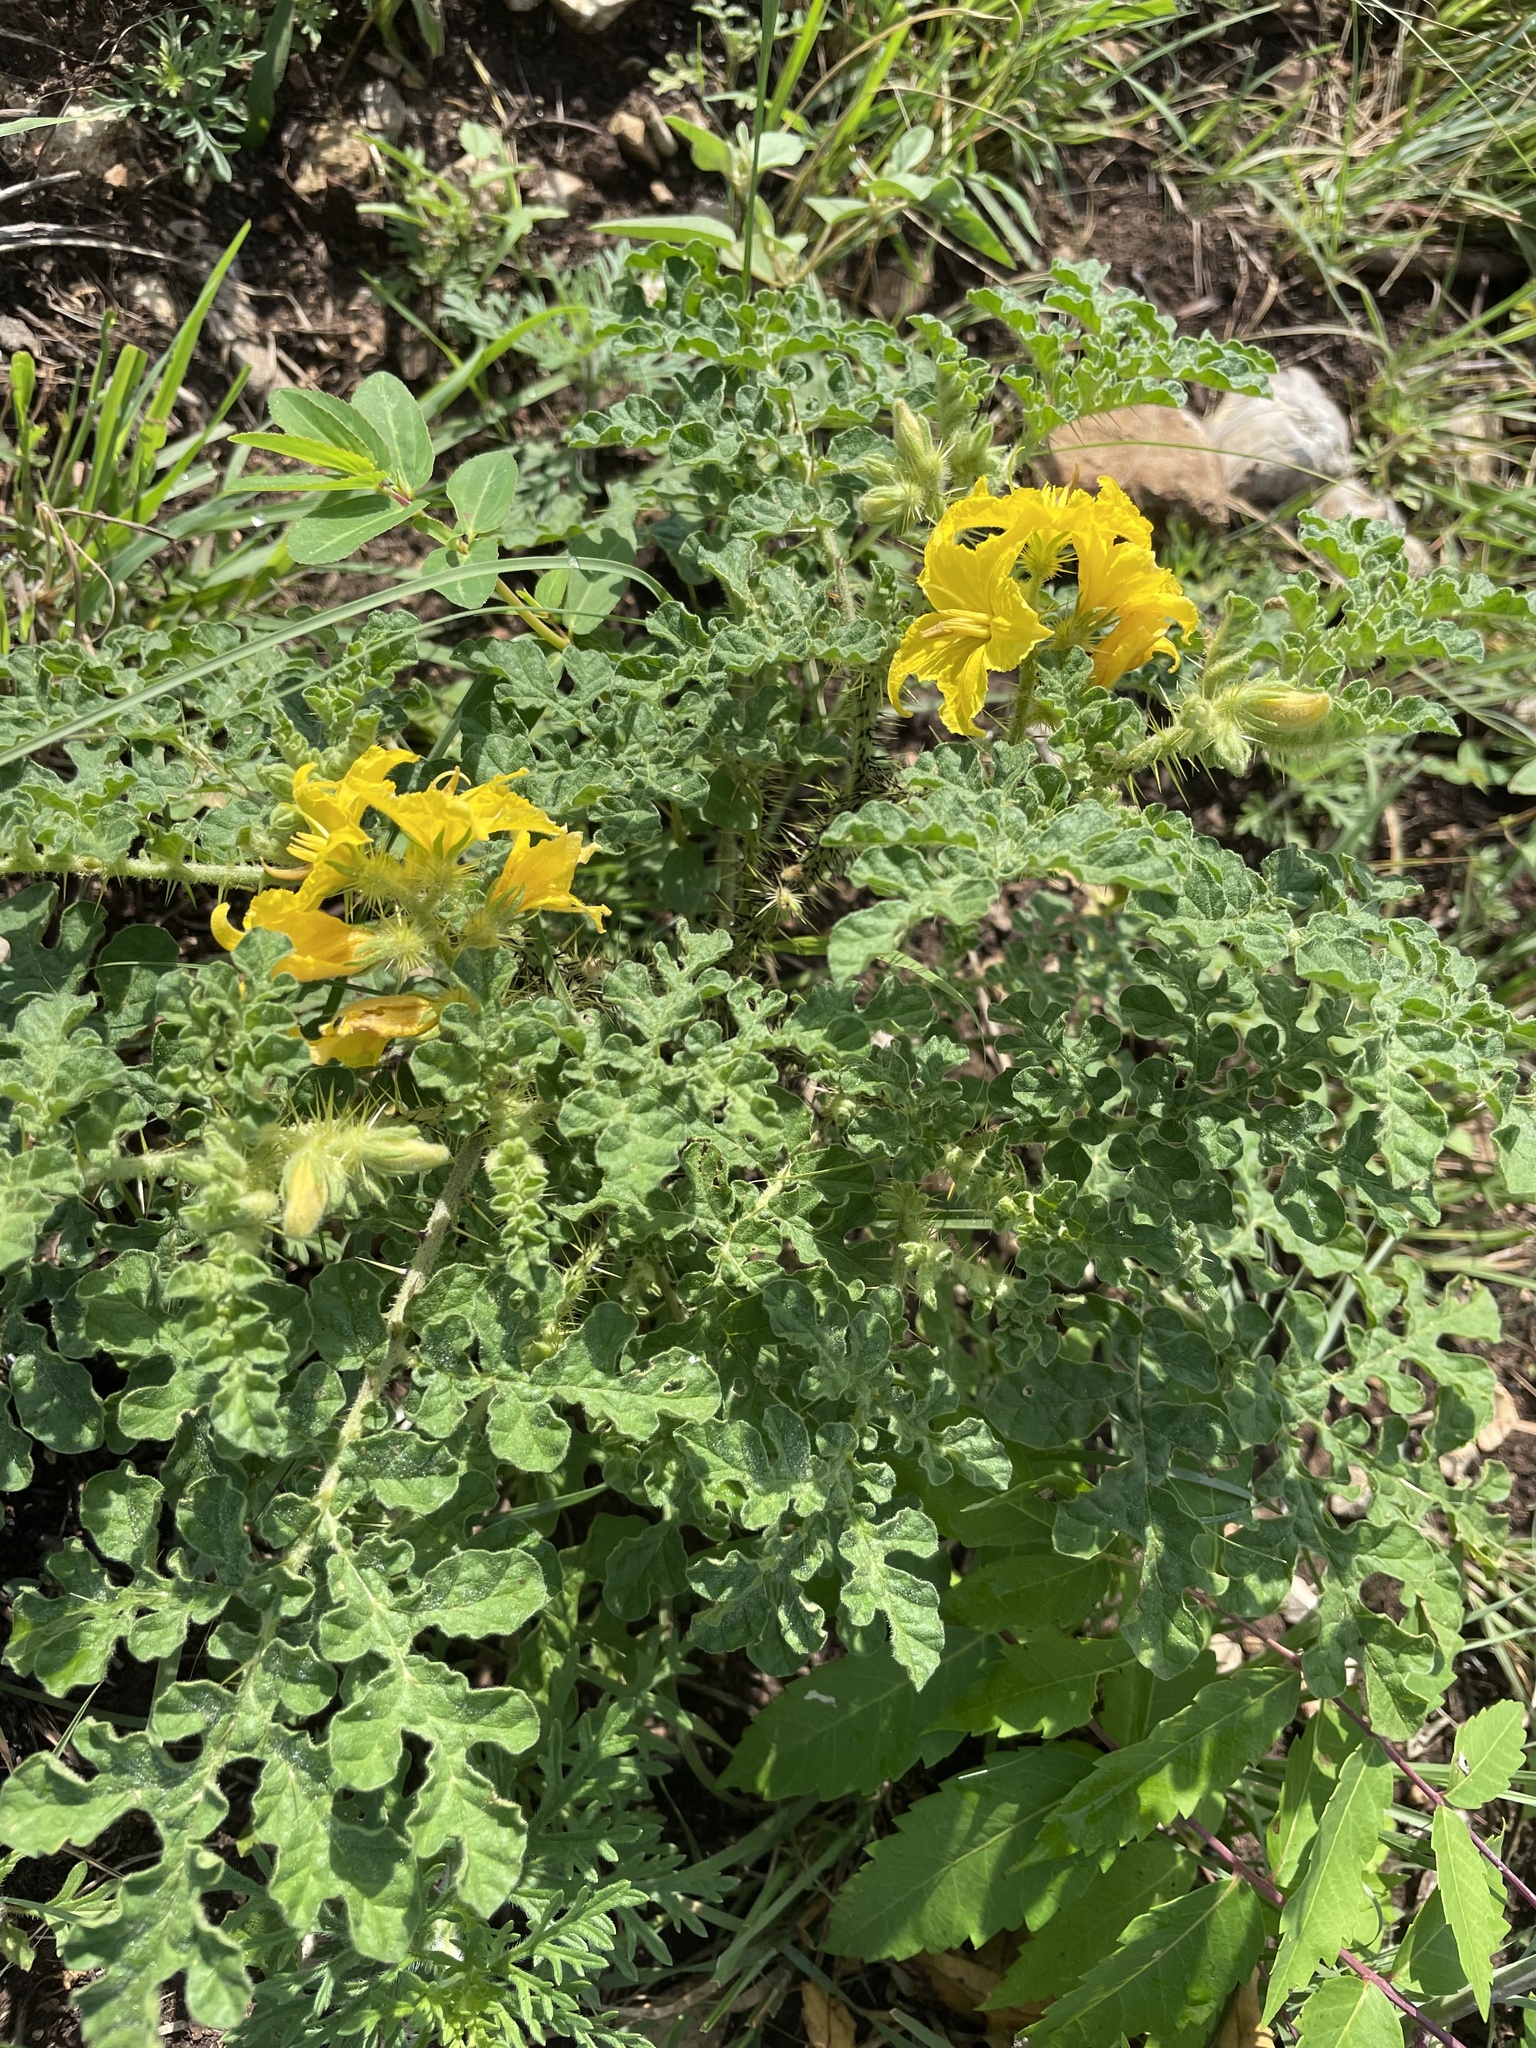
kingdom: Plantae
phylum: Tracheophyta
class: Magnoliopsida
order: Solanales
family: Solanaceae
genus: Solanum
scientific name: Solanum angustifolium
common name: Buffalobur nightshade
